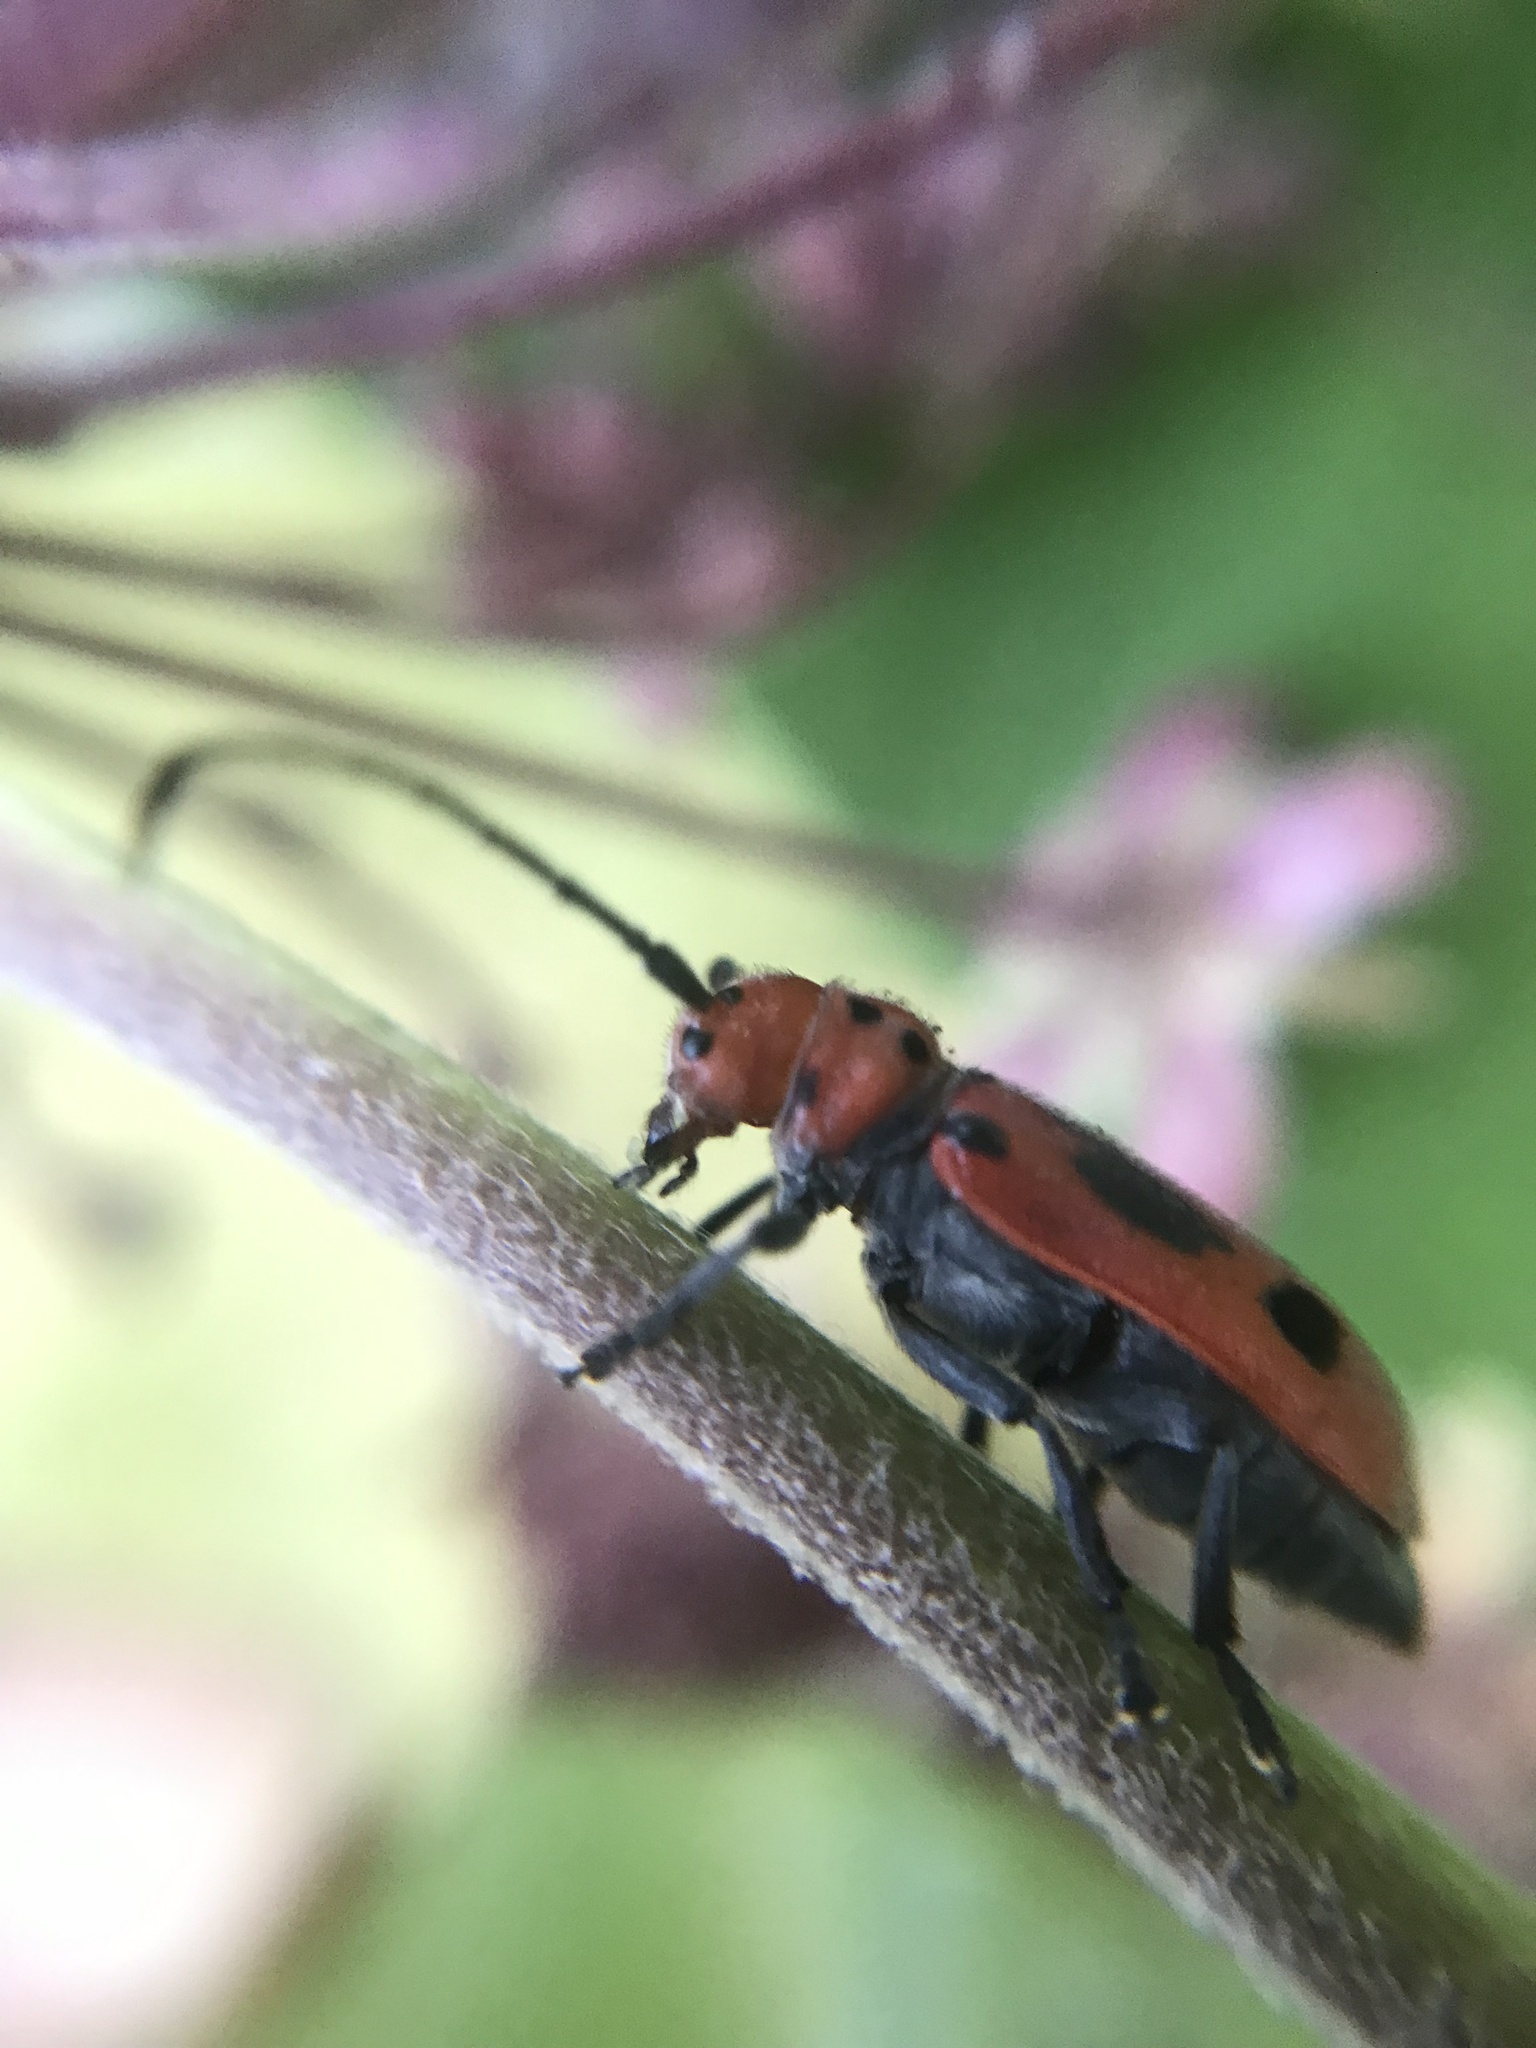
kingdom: Animalia
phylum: Arthropoda
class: Insecta
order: Coleoptera
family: Cerambycidae
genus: Tetraopes
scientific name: Tetraopes tetrophthalmus
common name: Red milkweed beetle
